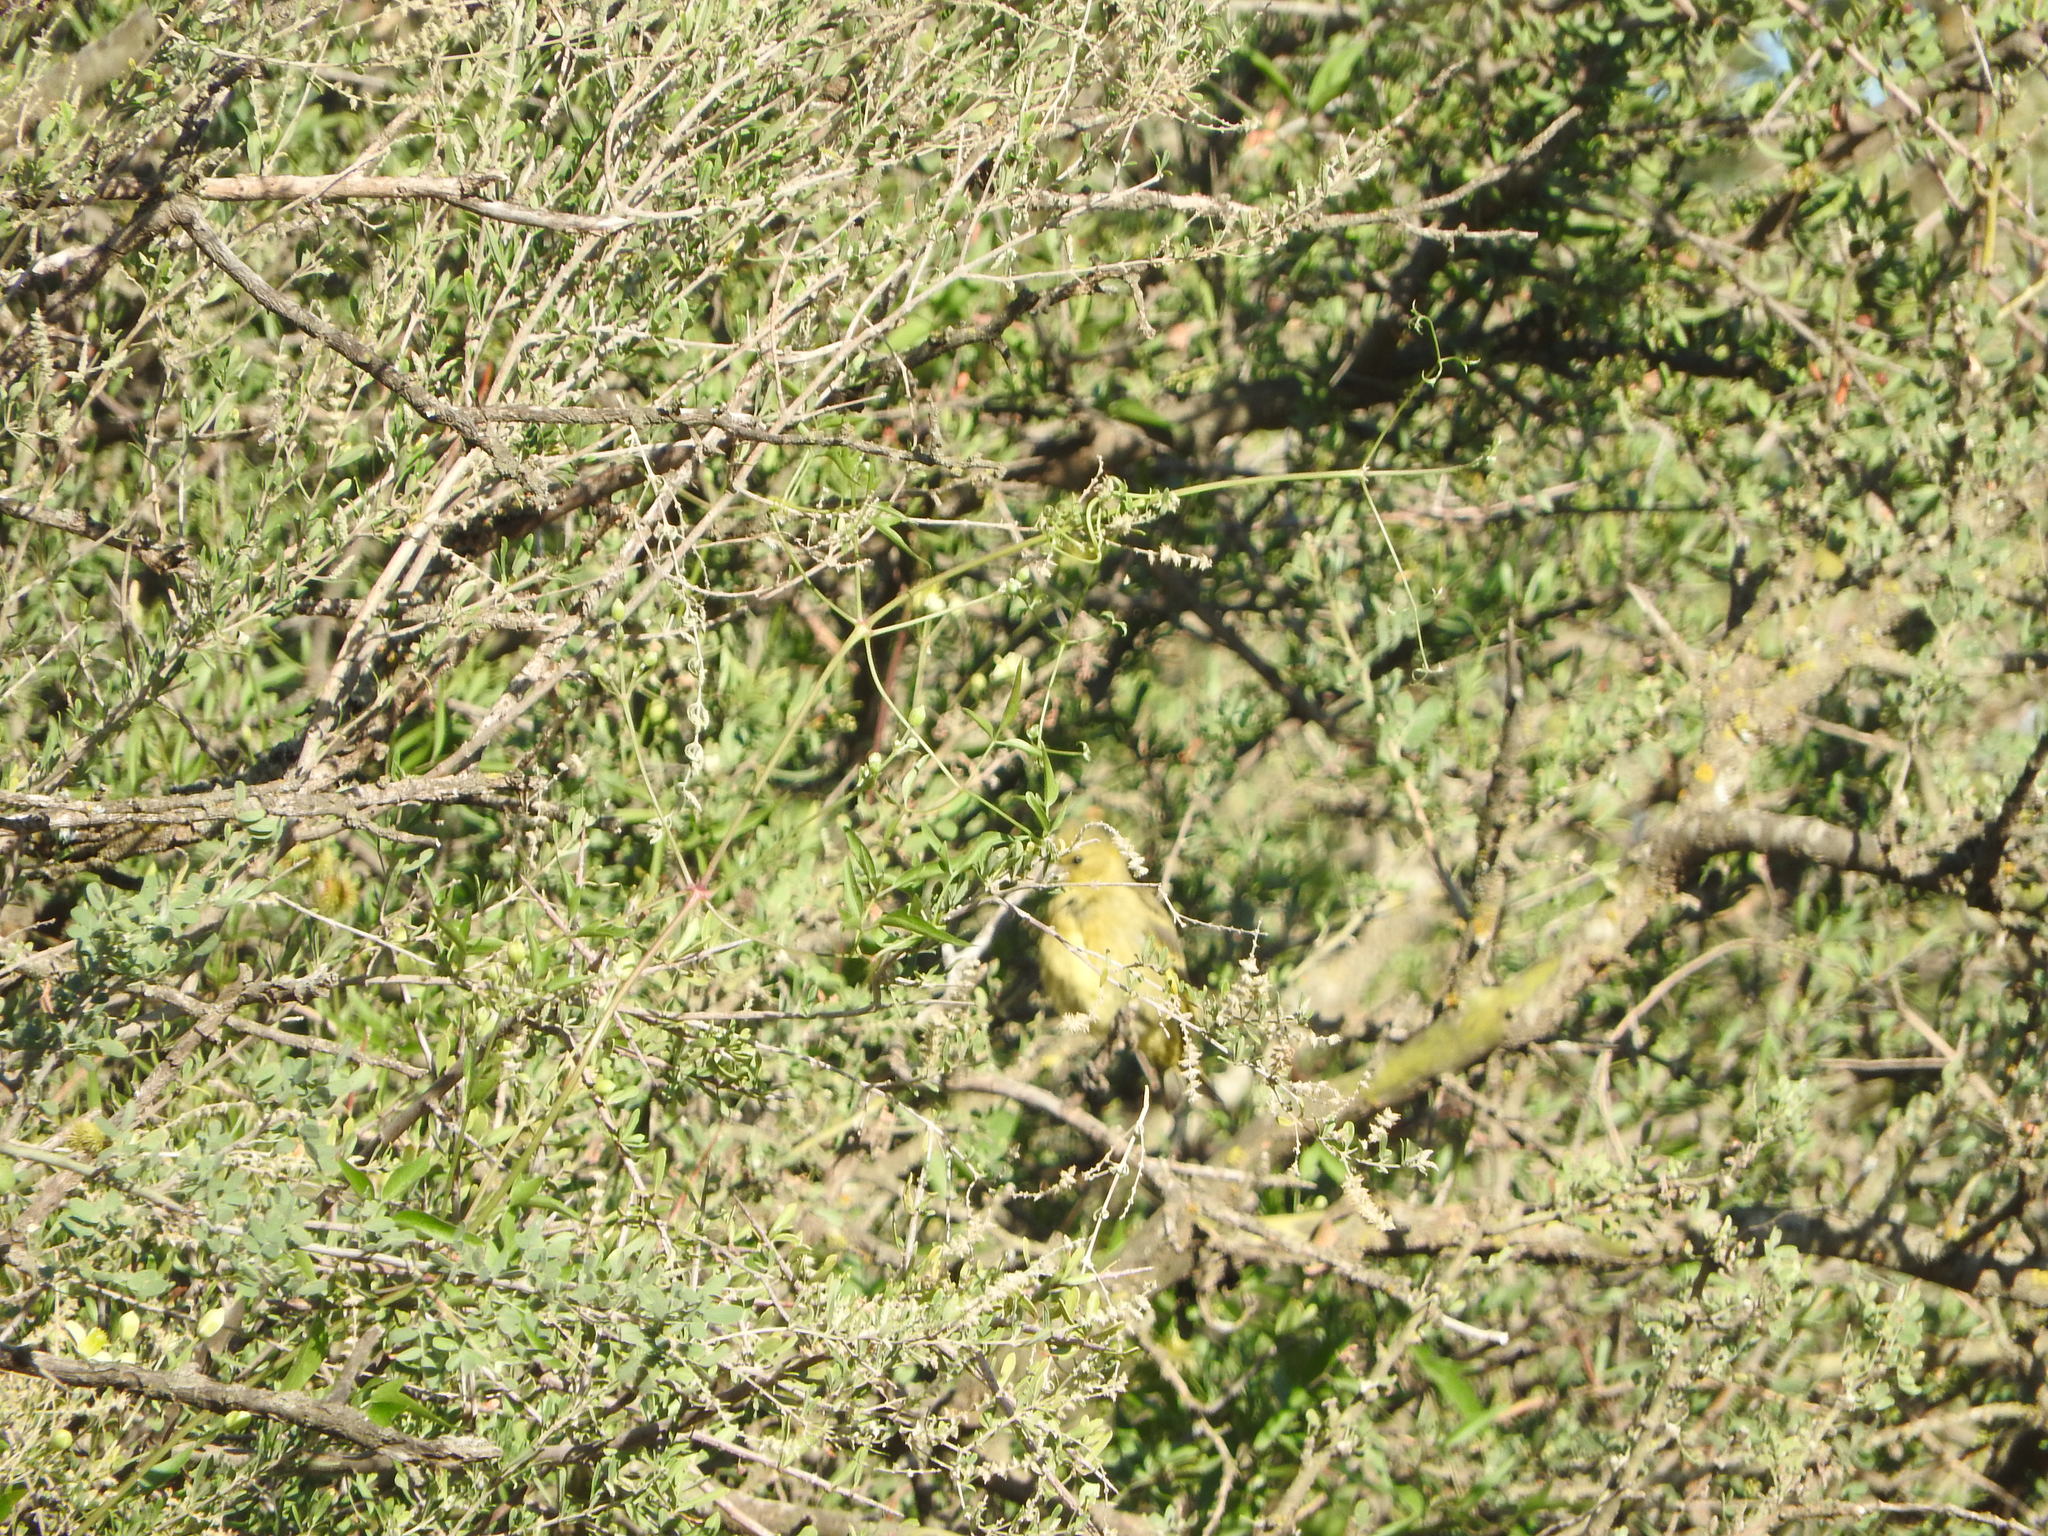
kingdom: Animalia
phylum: Chordata
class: Aves
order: Passeriformes
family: Fringillidae
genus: Spinus
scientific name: Spinus magellanicus
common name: Hooded siskin
